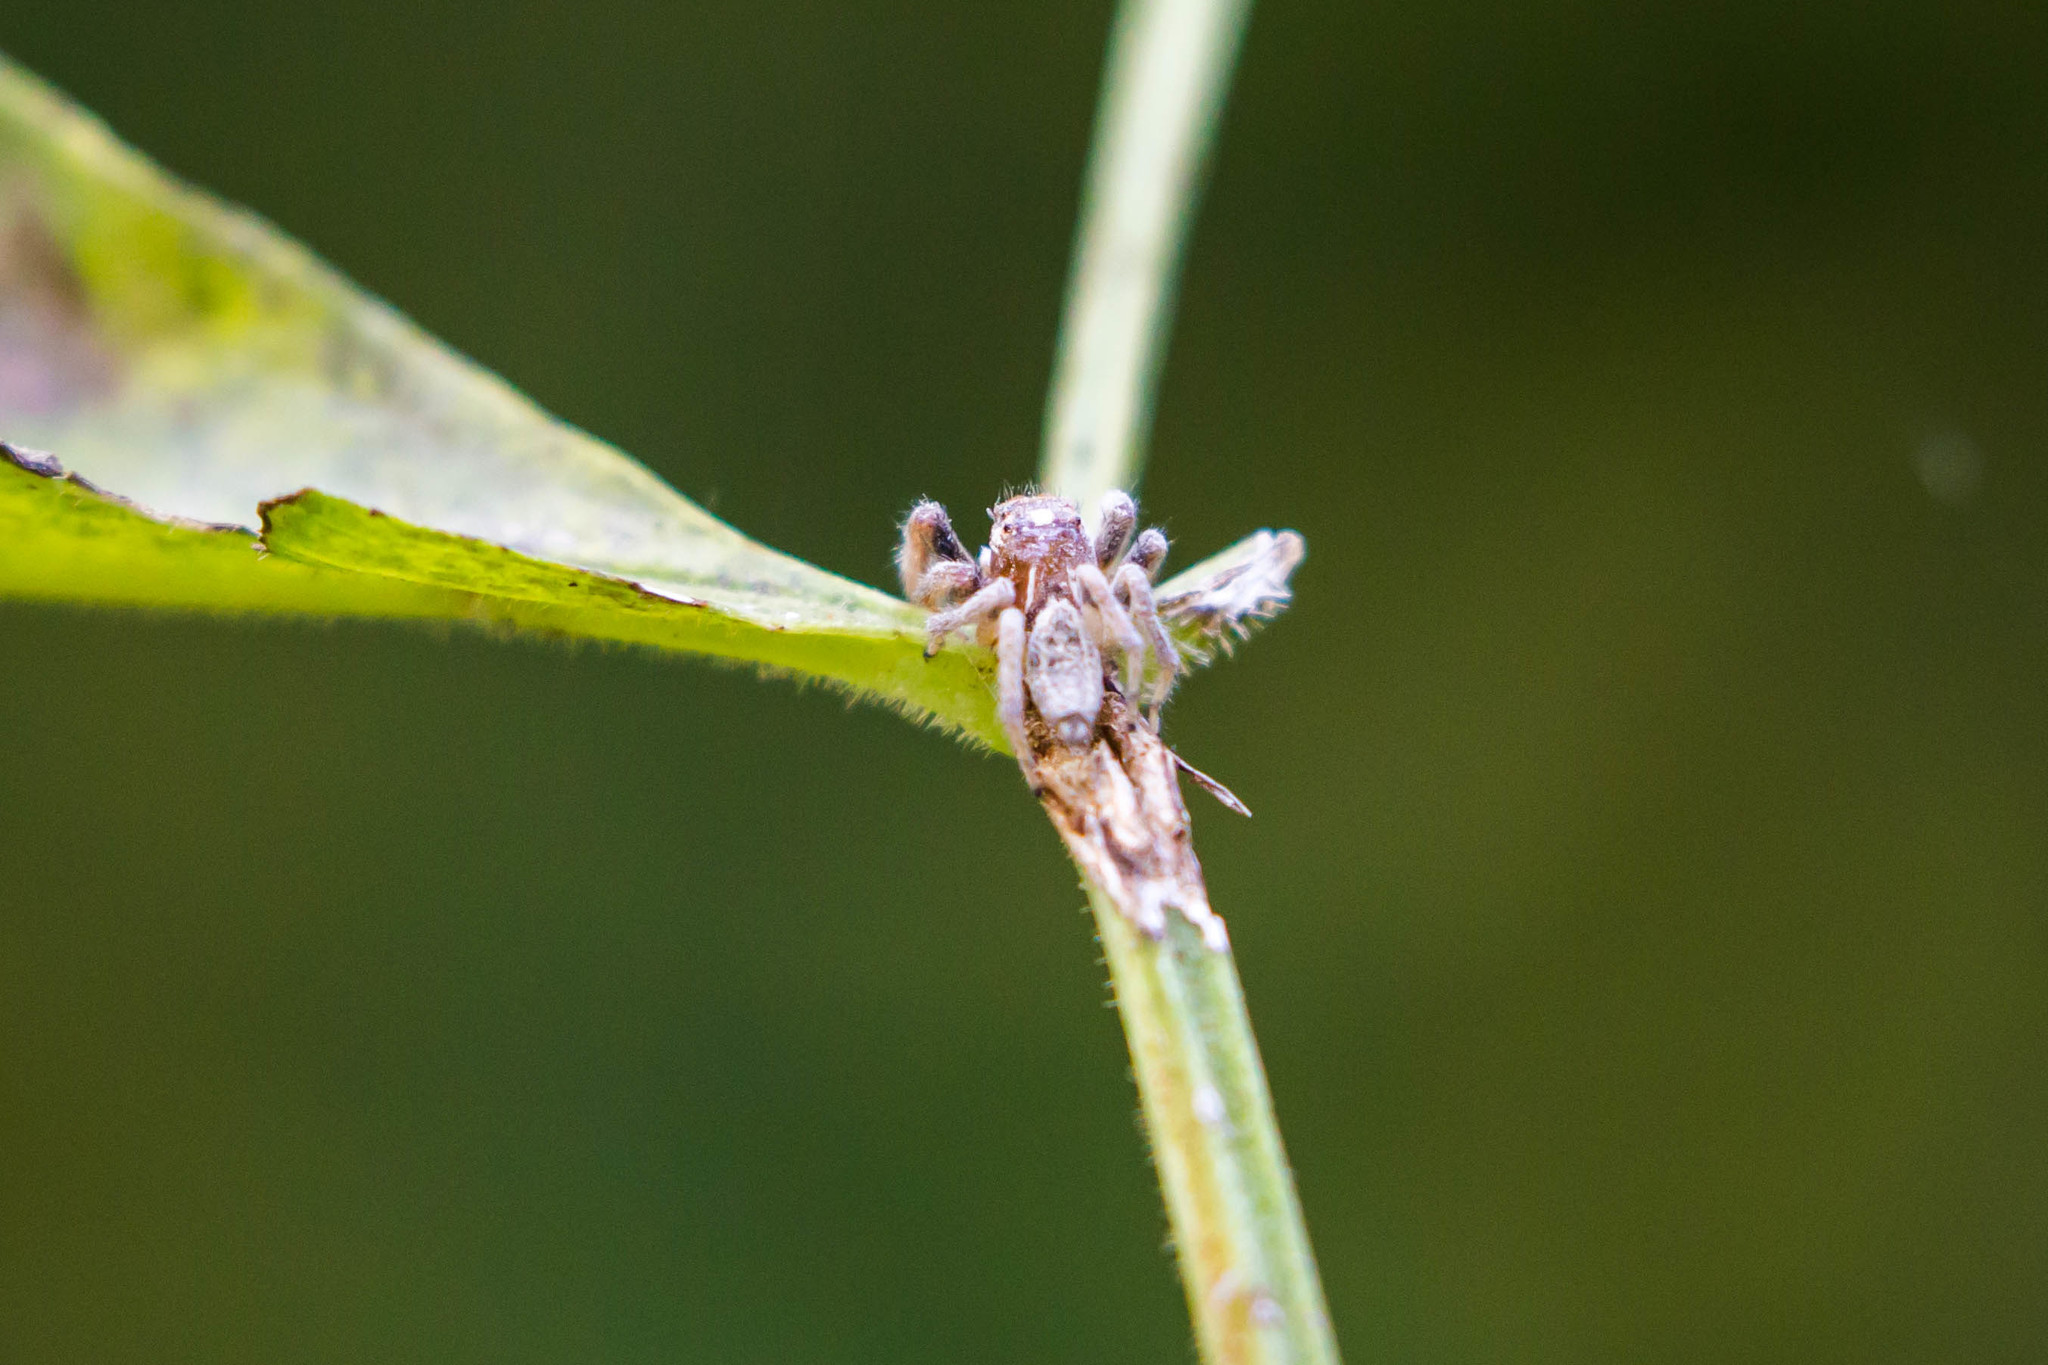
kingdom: Animalia
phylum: Arthropoda
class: Arachnida
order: Araneae
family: Salticidae
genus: Colonus
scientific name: Colonus sylvanus
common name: Jumping spiders
